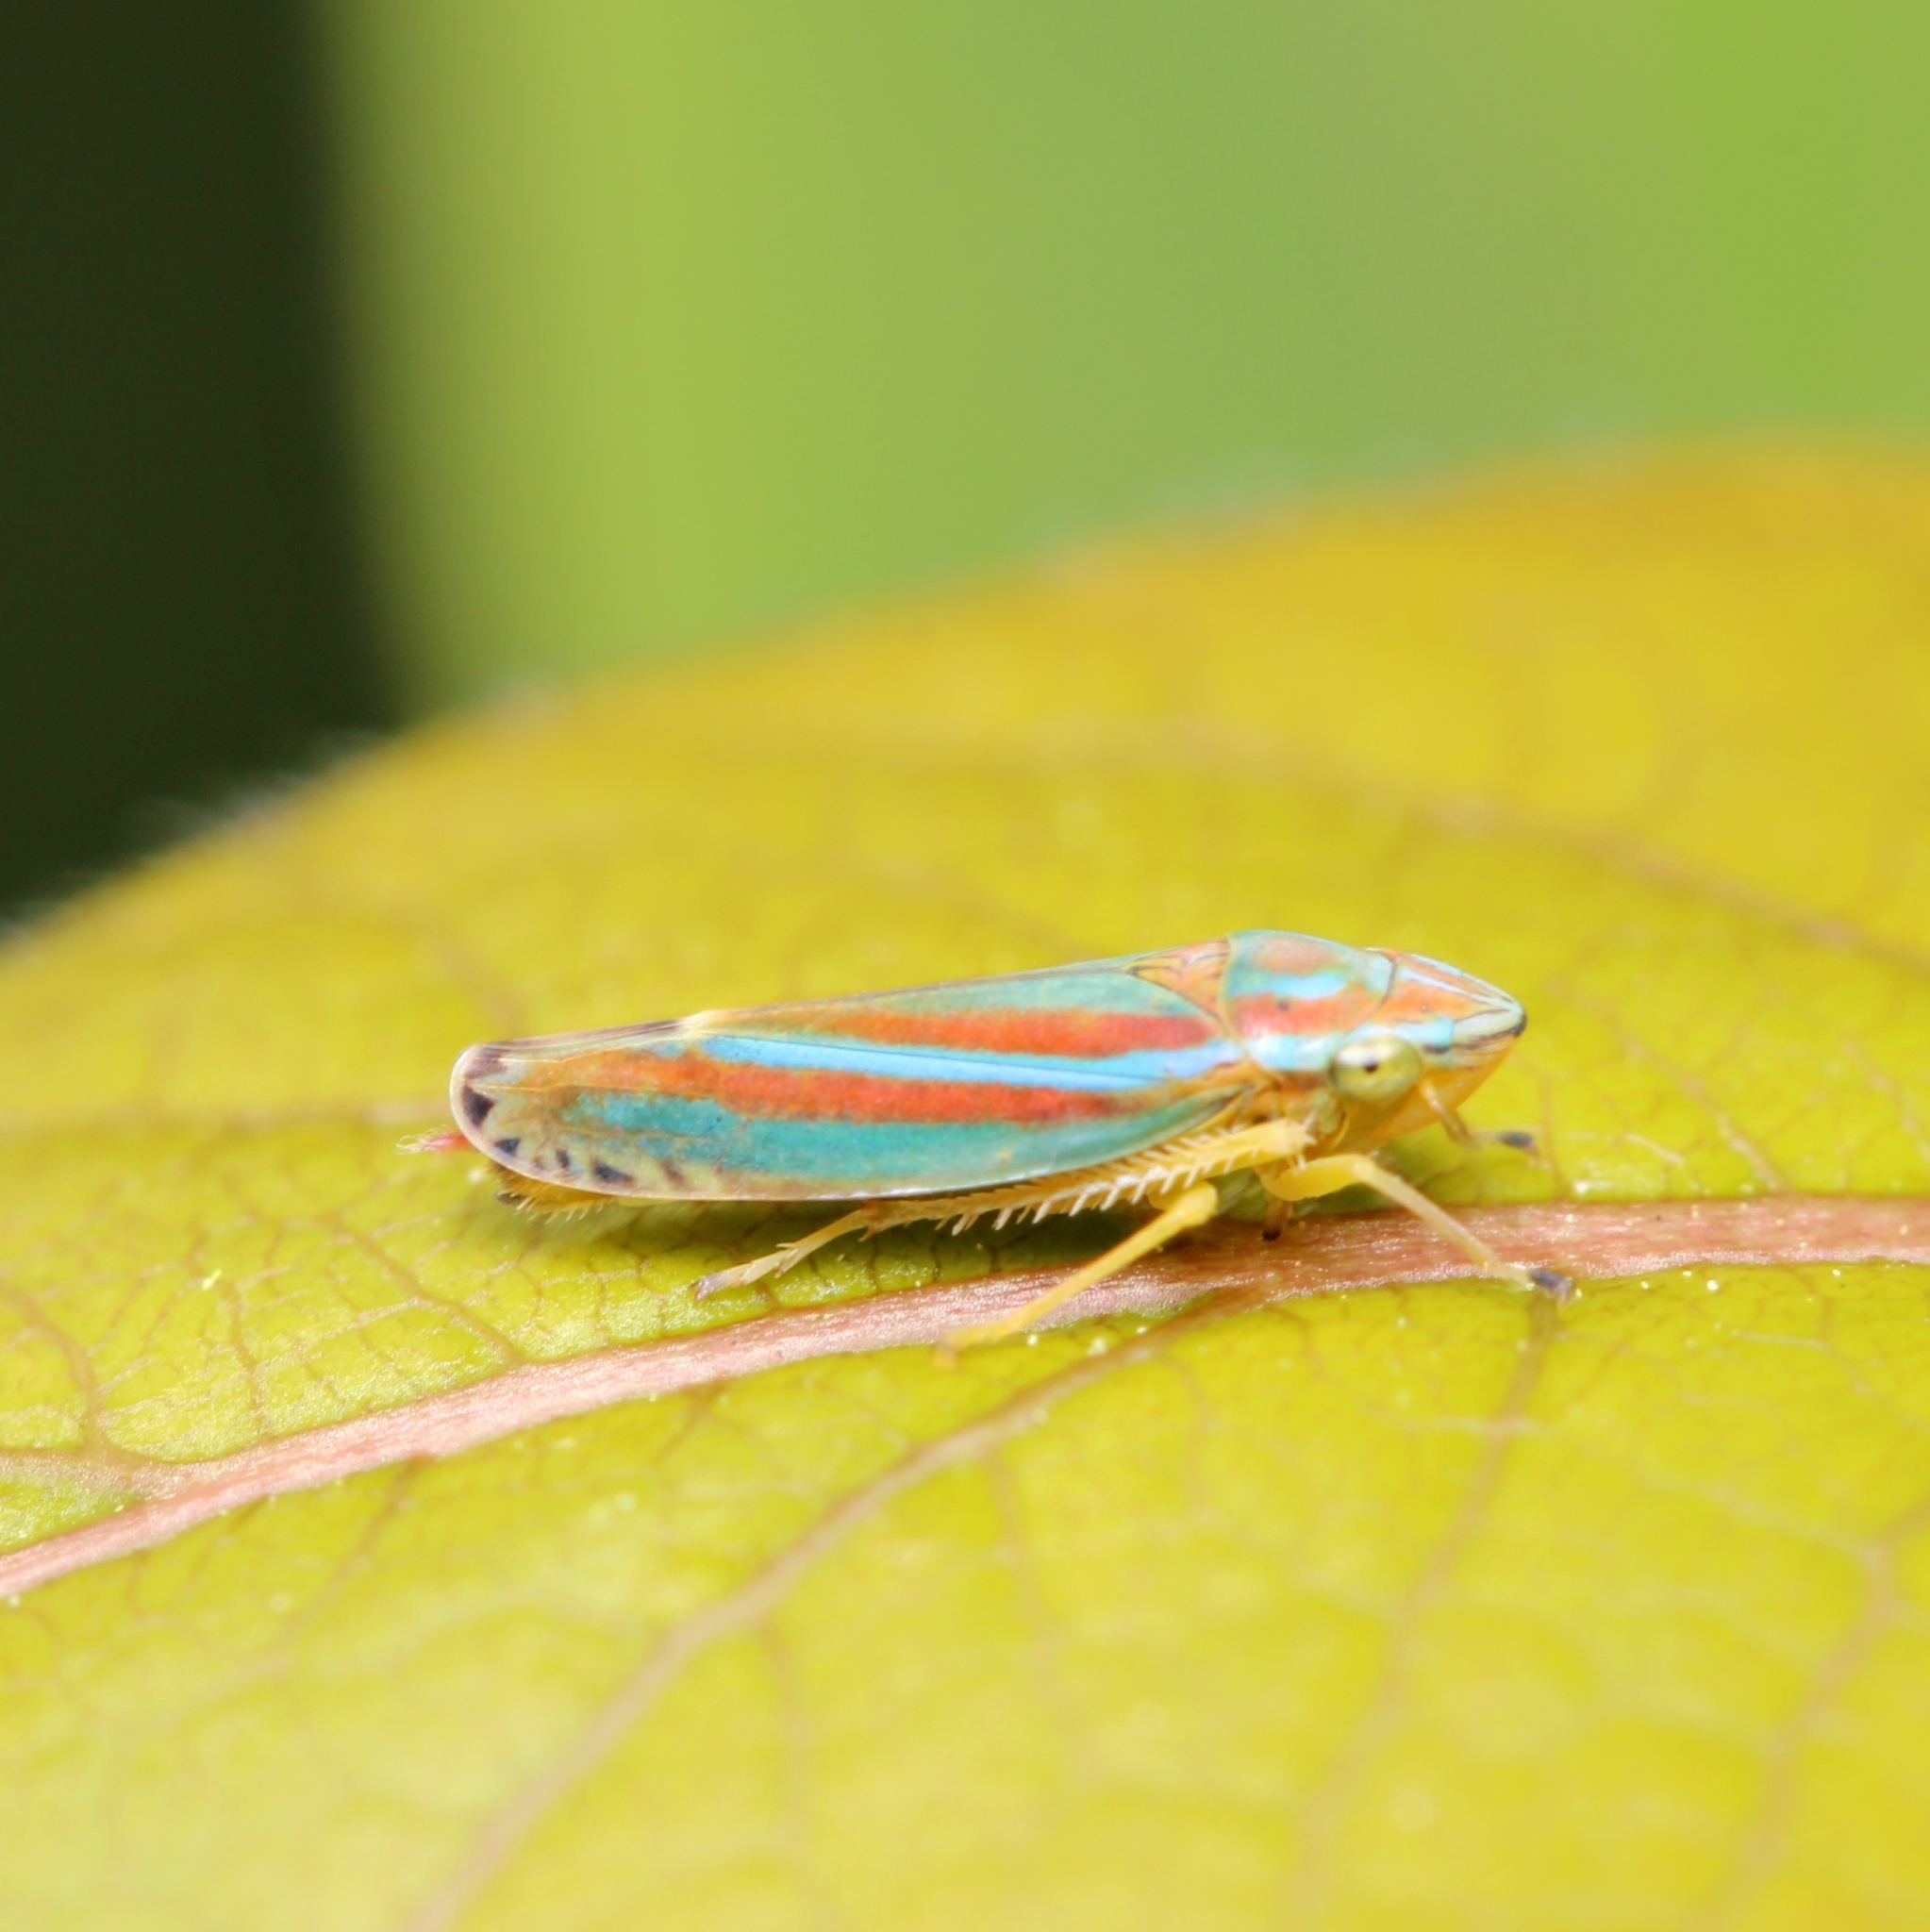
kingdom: Animalia
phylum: Arthropoda
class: Insecta
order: Hemiptera
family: Cicadellidae
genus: Graphocephala
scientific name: Graphocephala versuta
